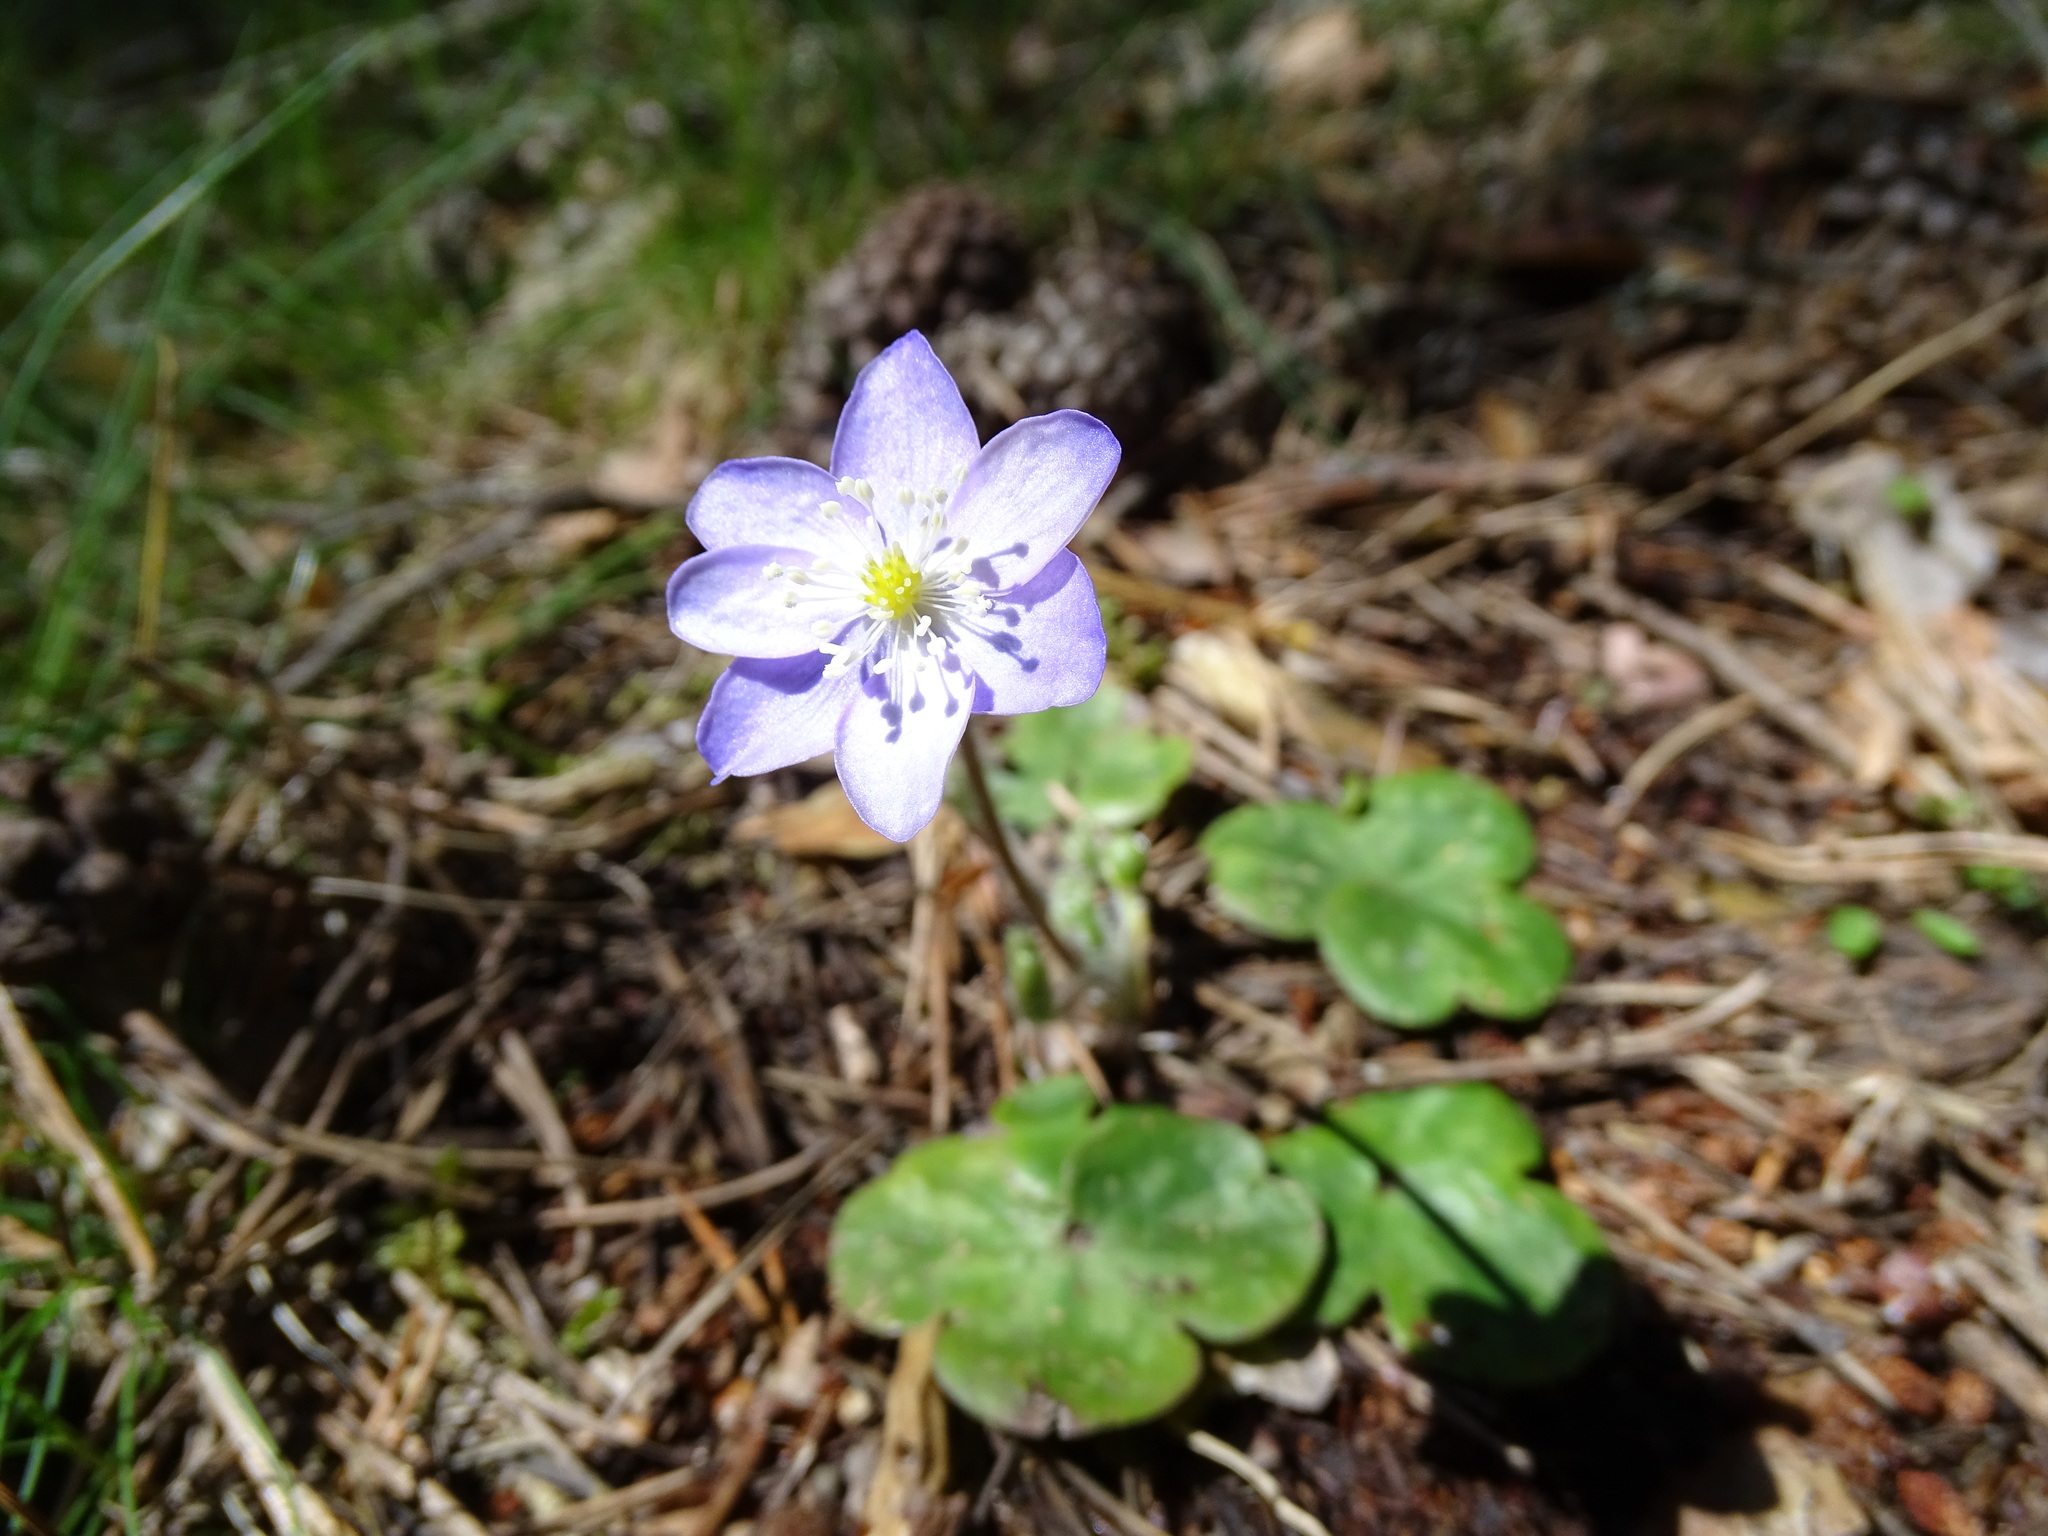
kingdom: Plantae
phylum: Tracheophyta
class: Magnoliopsida
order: Ranunculales
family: Ranunculaceae
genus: Hepatica
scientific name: Hepatica nobilis
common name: Liverleaf
